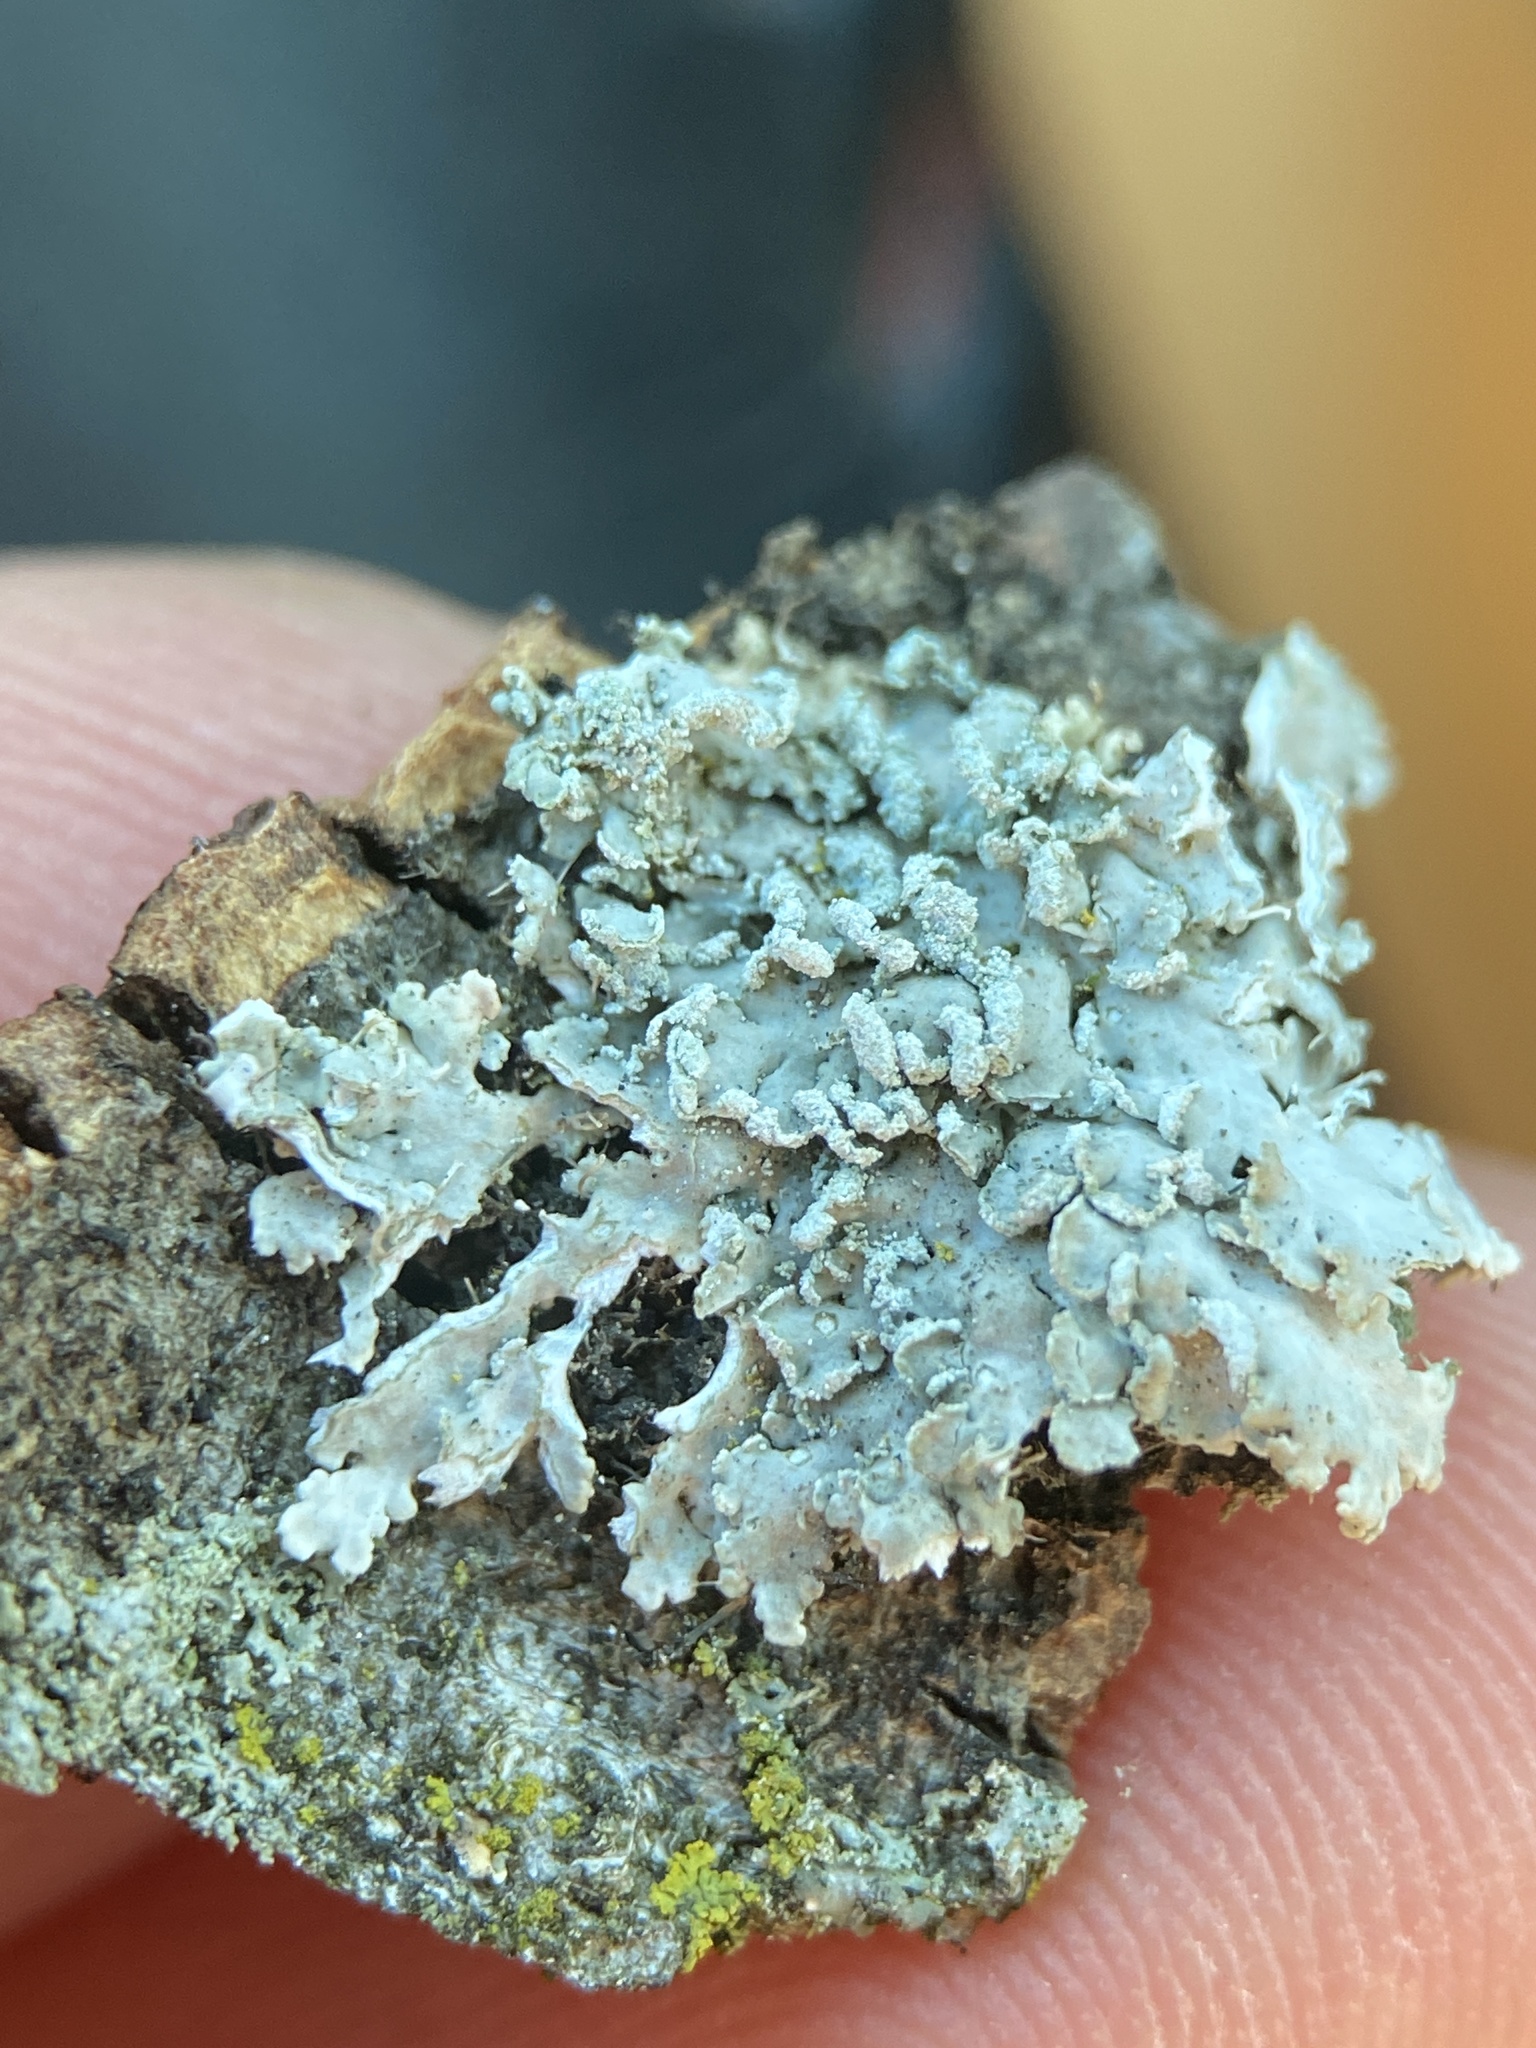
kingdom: Fungi
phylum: Ascomycota
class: Lecanoromycetes
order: Caliciales
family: Physciaceae
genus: Heterodermia
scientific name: Heterodermia speciosa
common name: Powdered fringe lichen
